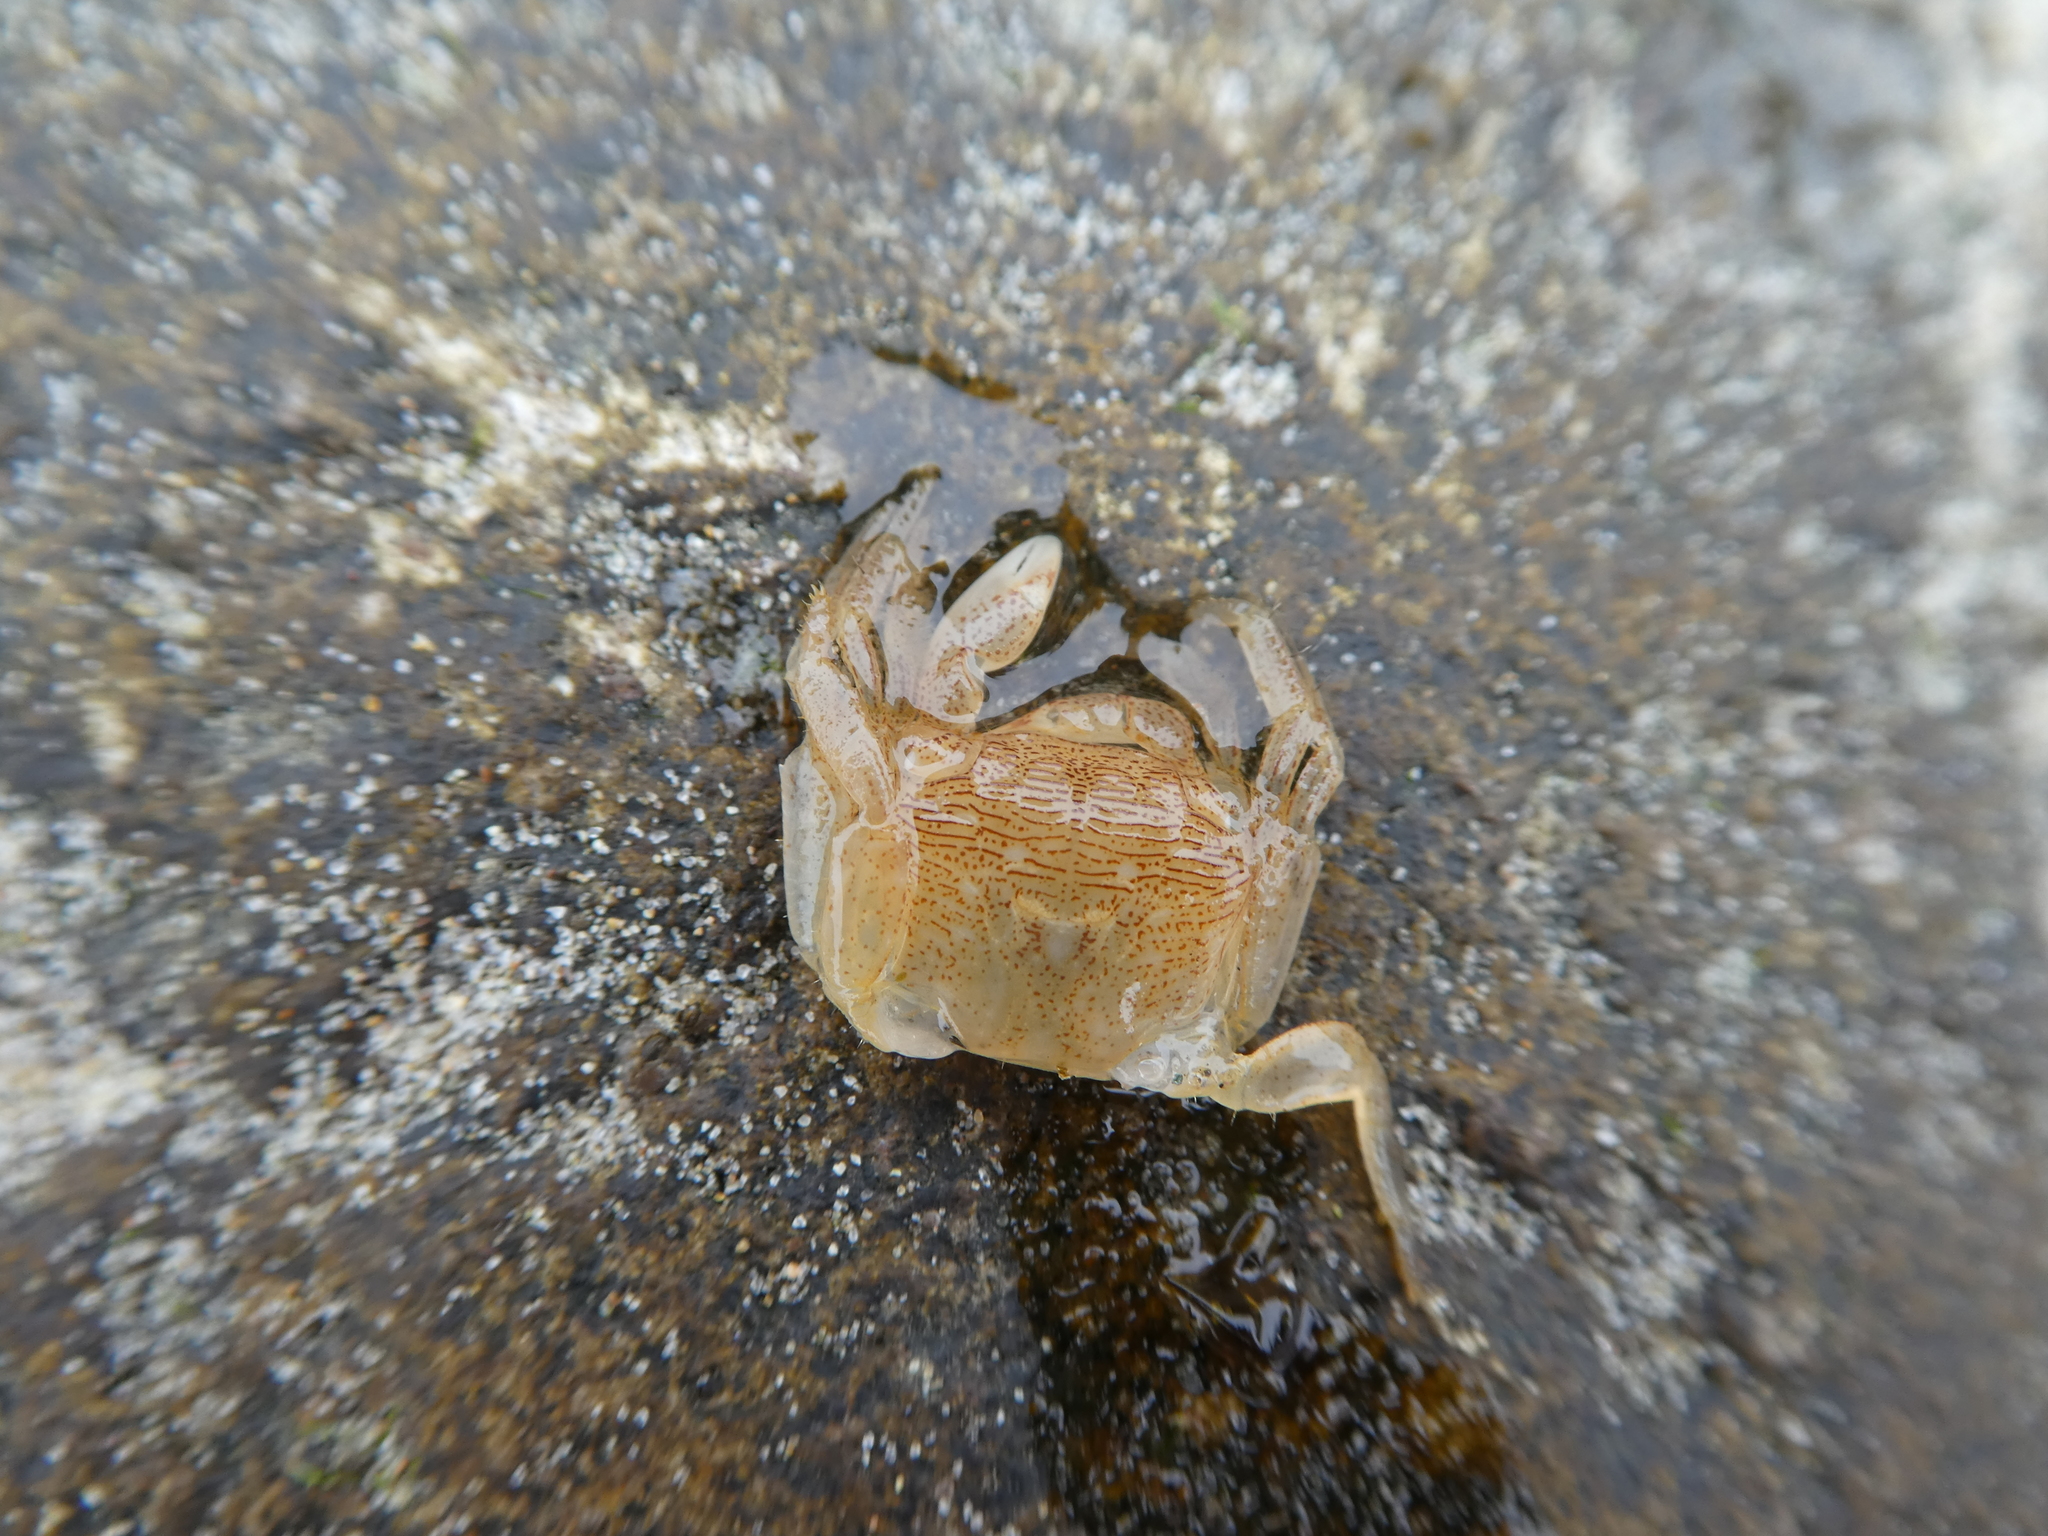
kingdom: Animalia
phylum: Arthropoda
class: Malacostraca
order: Decapoda
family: Grapsidae
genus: Pachygrapsus
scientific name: Pachygrapsus crassipes
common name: Striped shore crab
